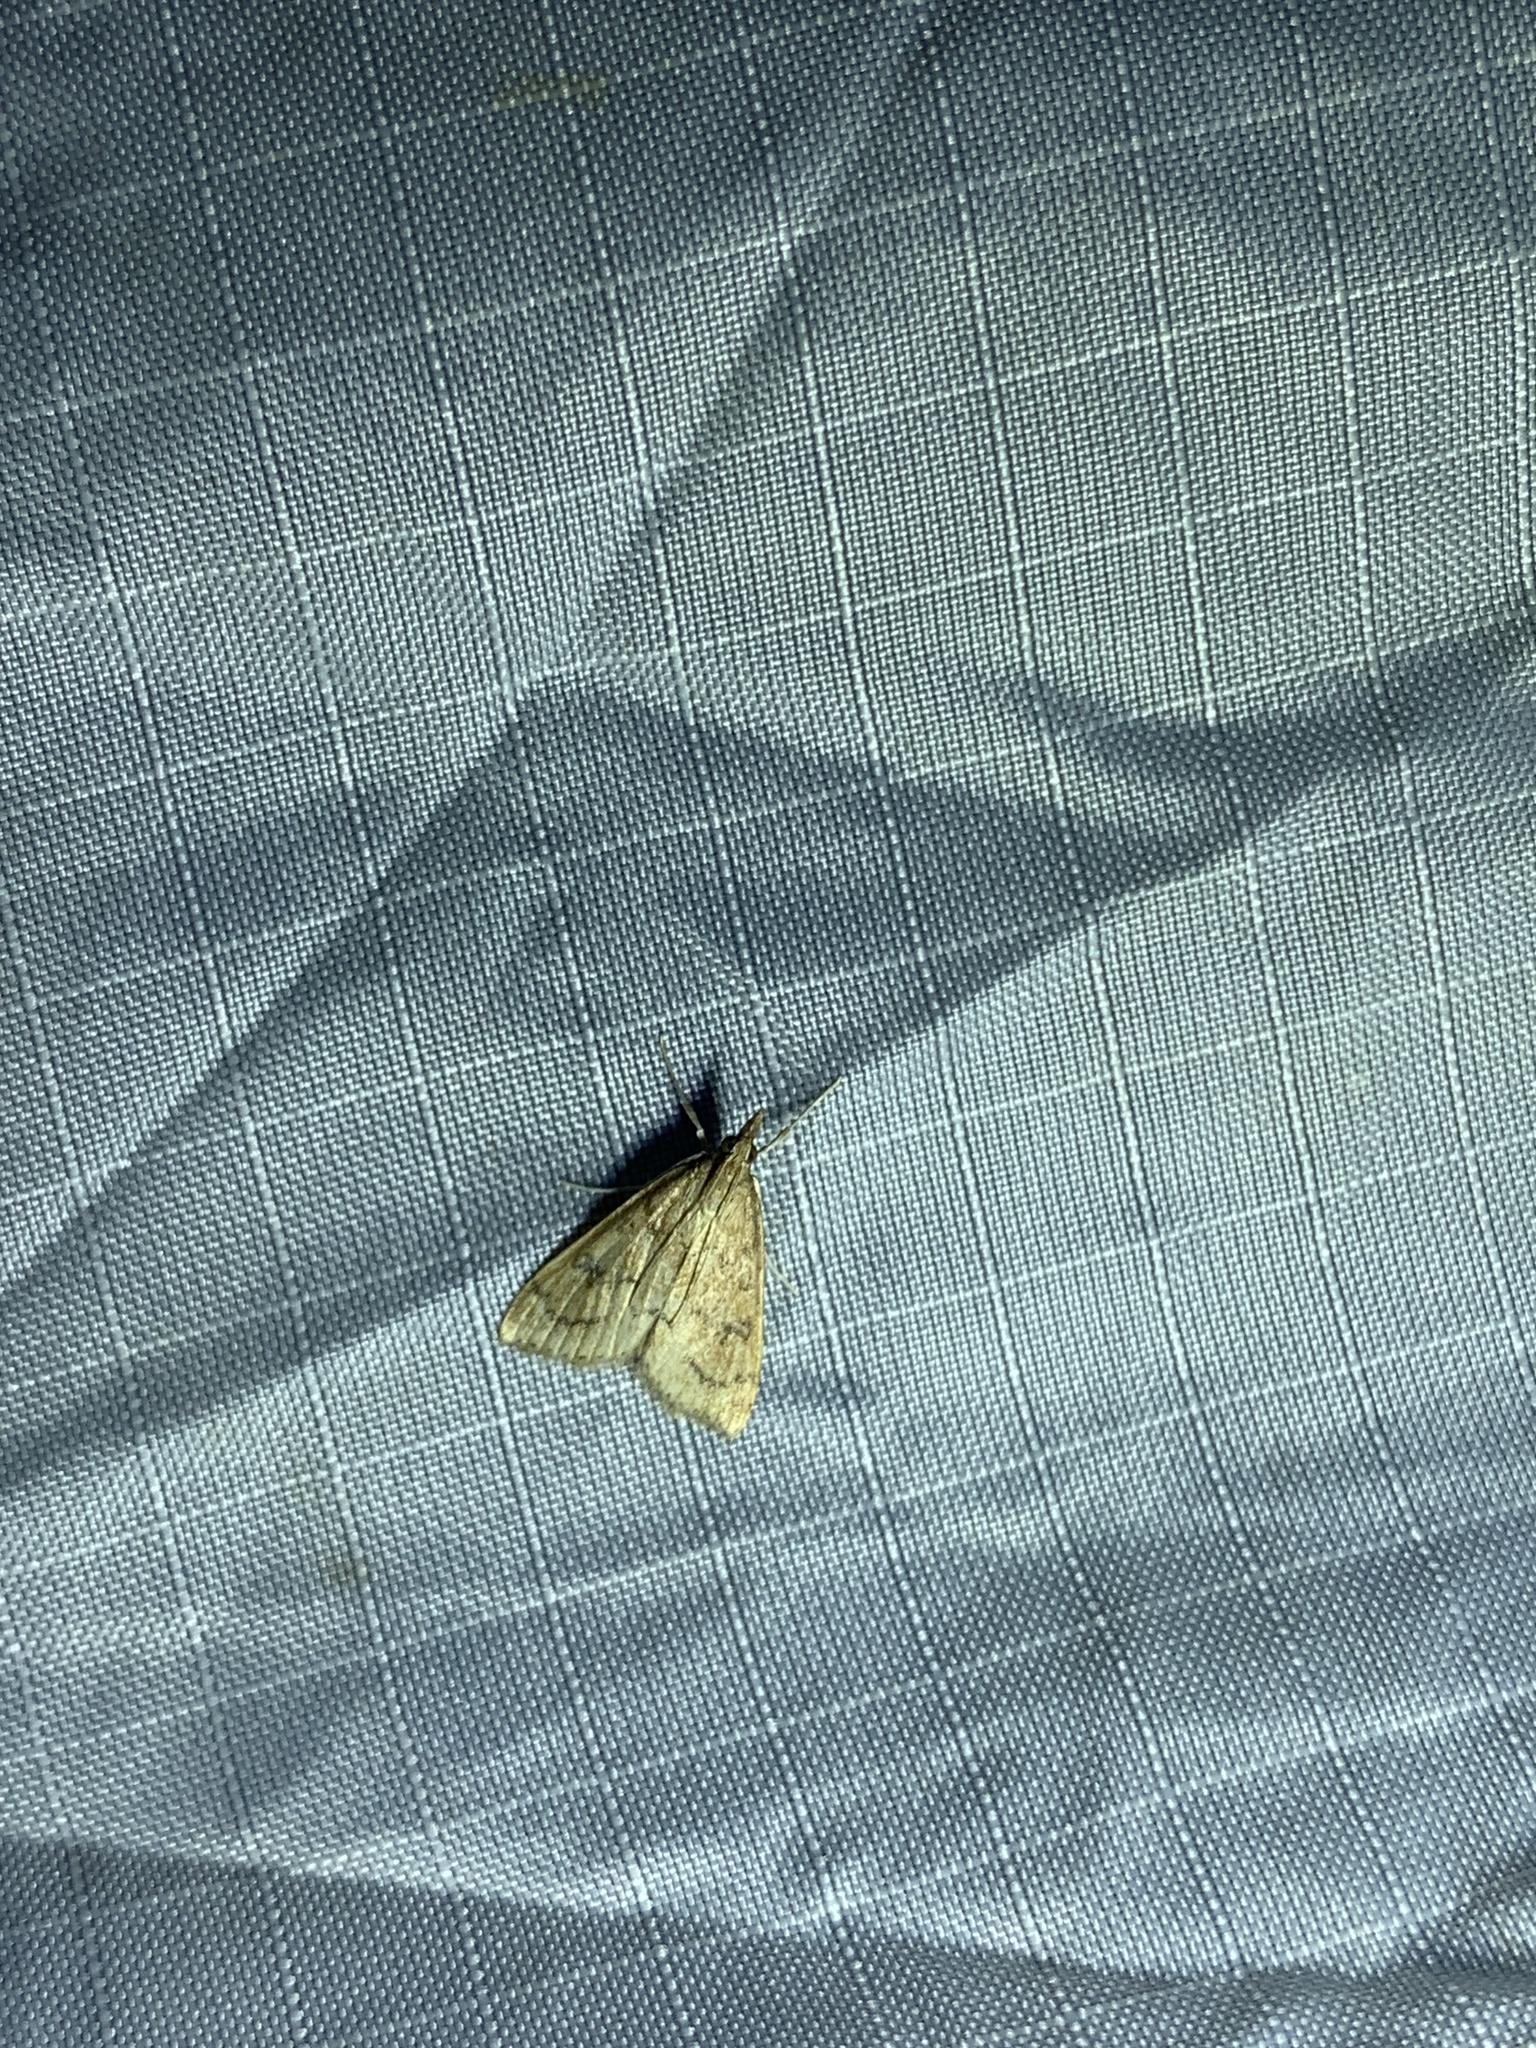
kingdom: Animalia
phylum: Arthropoda
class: Insecta
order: Lepidoptera
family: Crambidae
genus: Udea
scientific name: Udea rubigalis
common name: Celery leaftier moth
